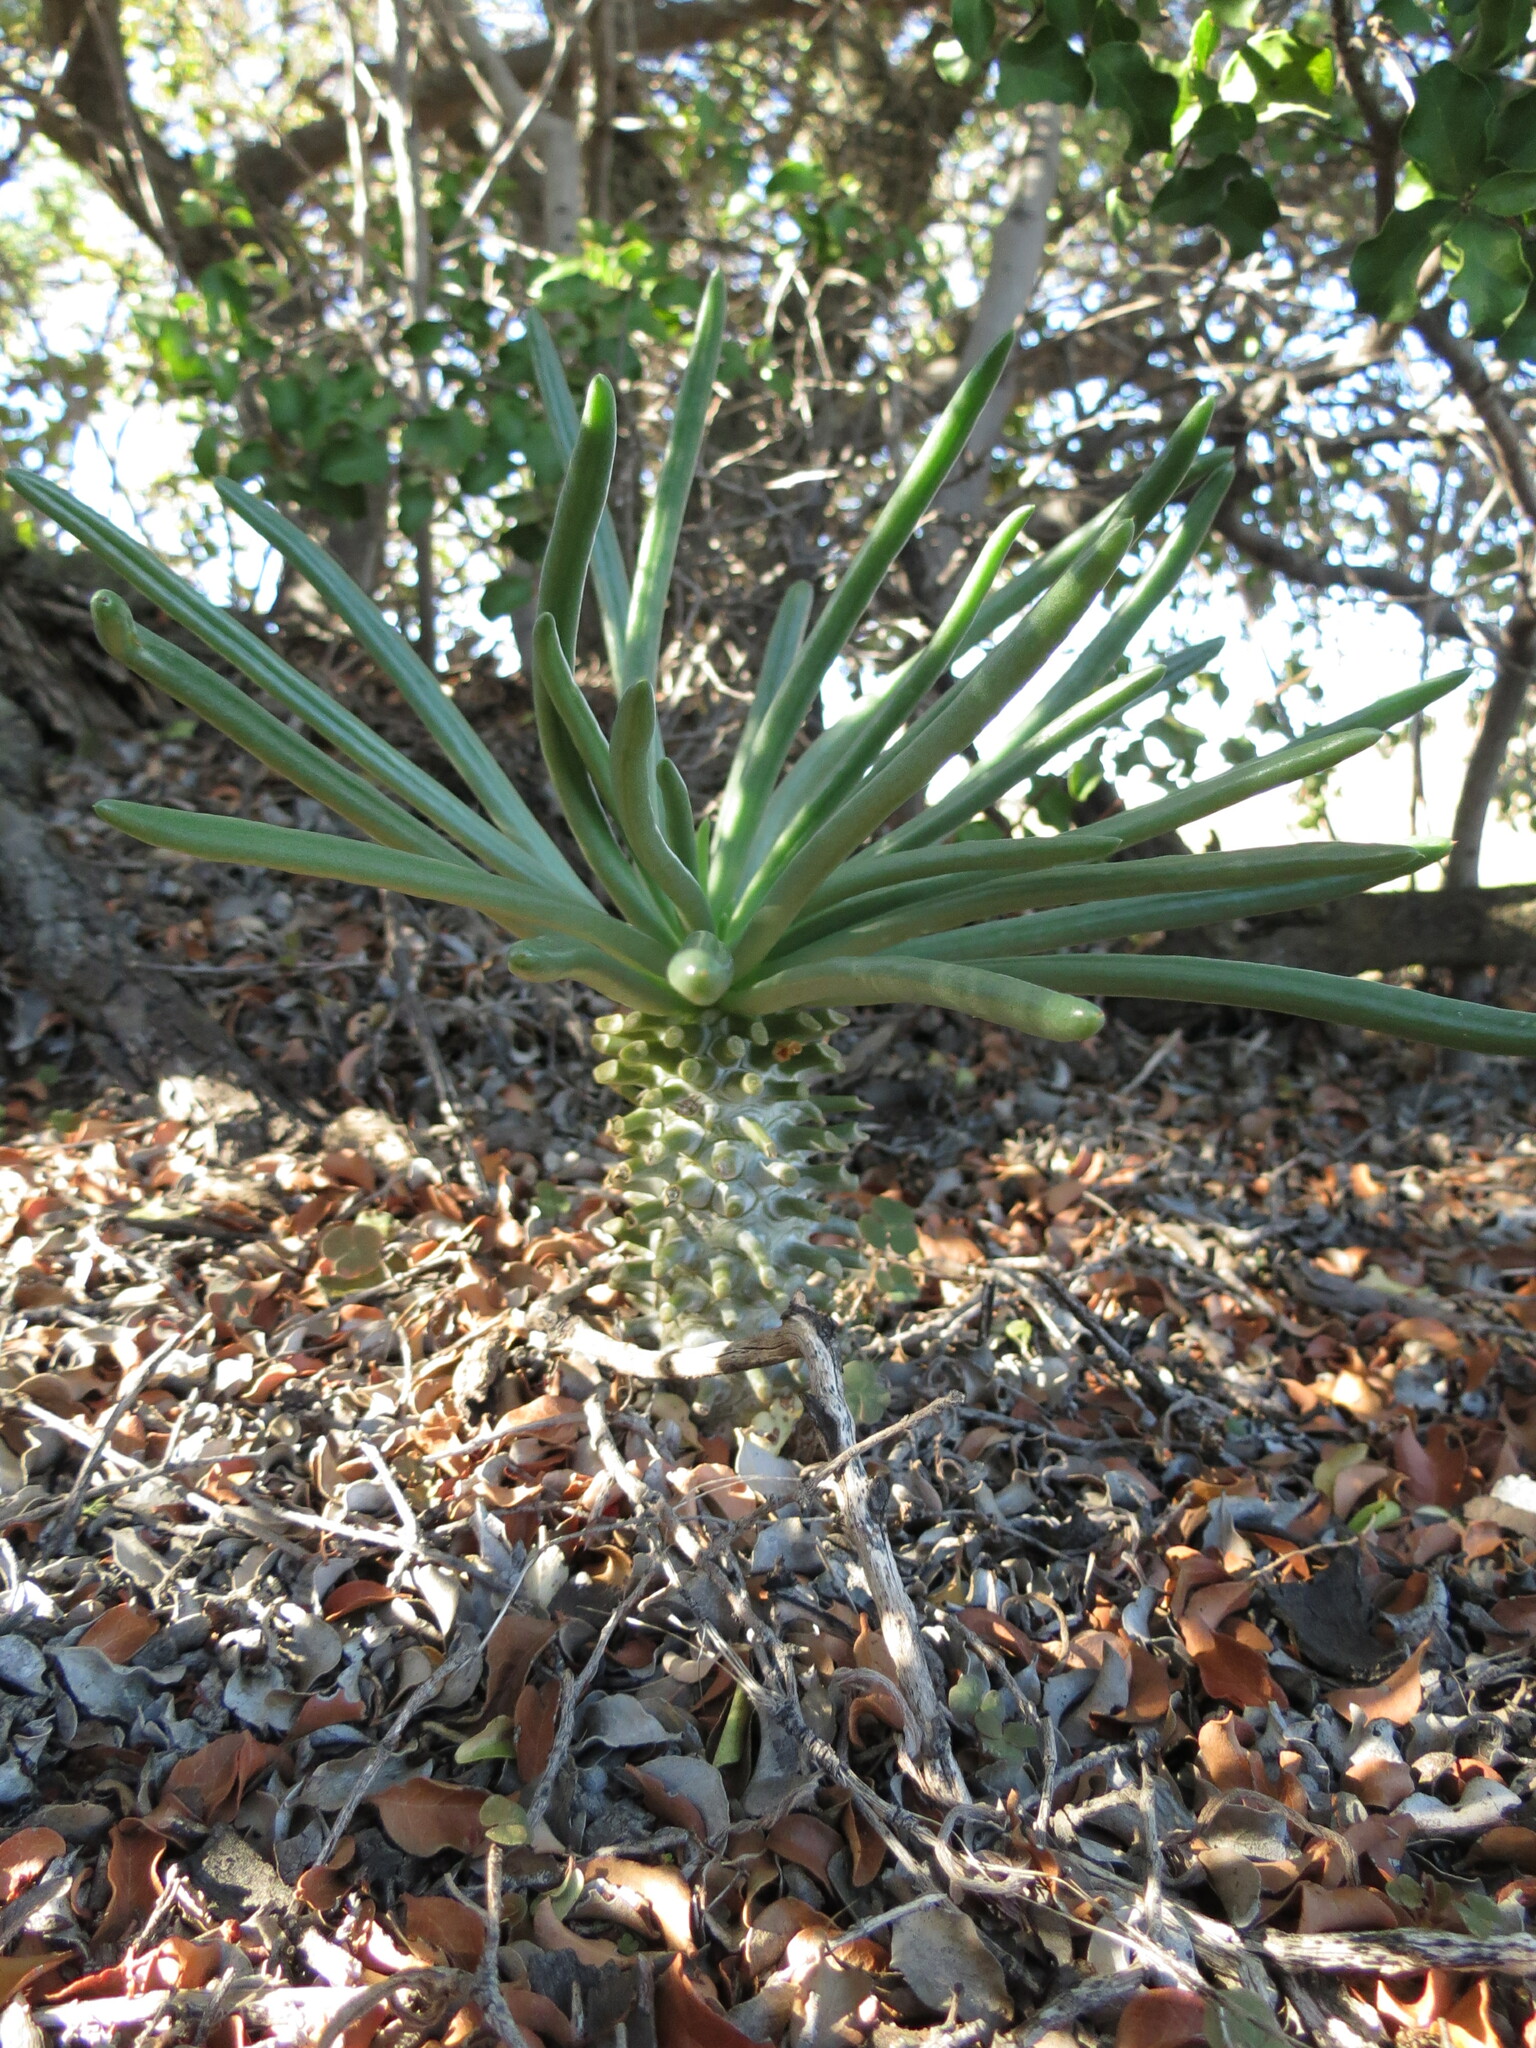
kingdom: Plantae
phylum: Tracheophyta
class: Magnoliopsida
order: Saxifragales
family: Crassulaceae
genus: Tylecodon
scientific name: Tylecodon wallichii
